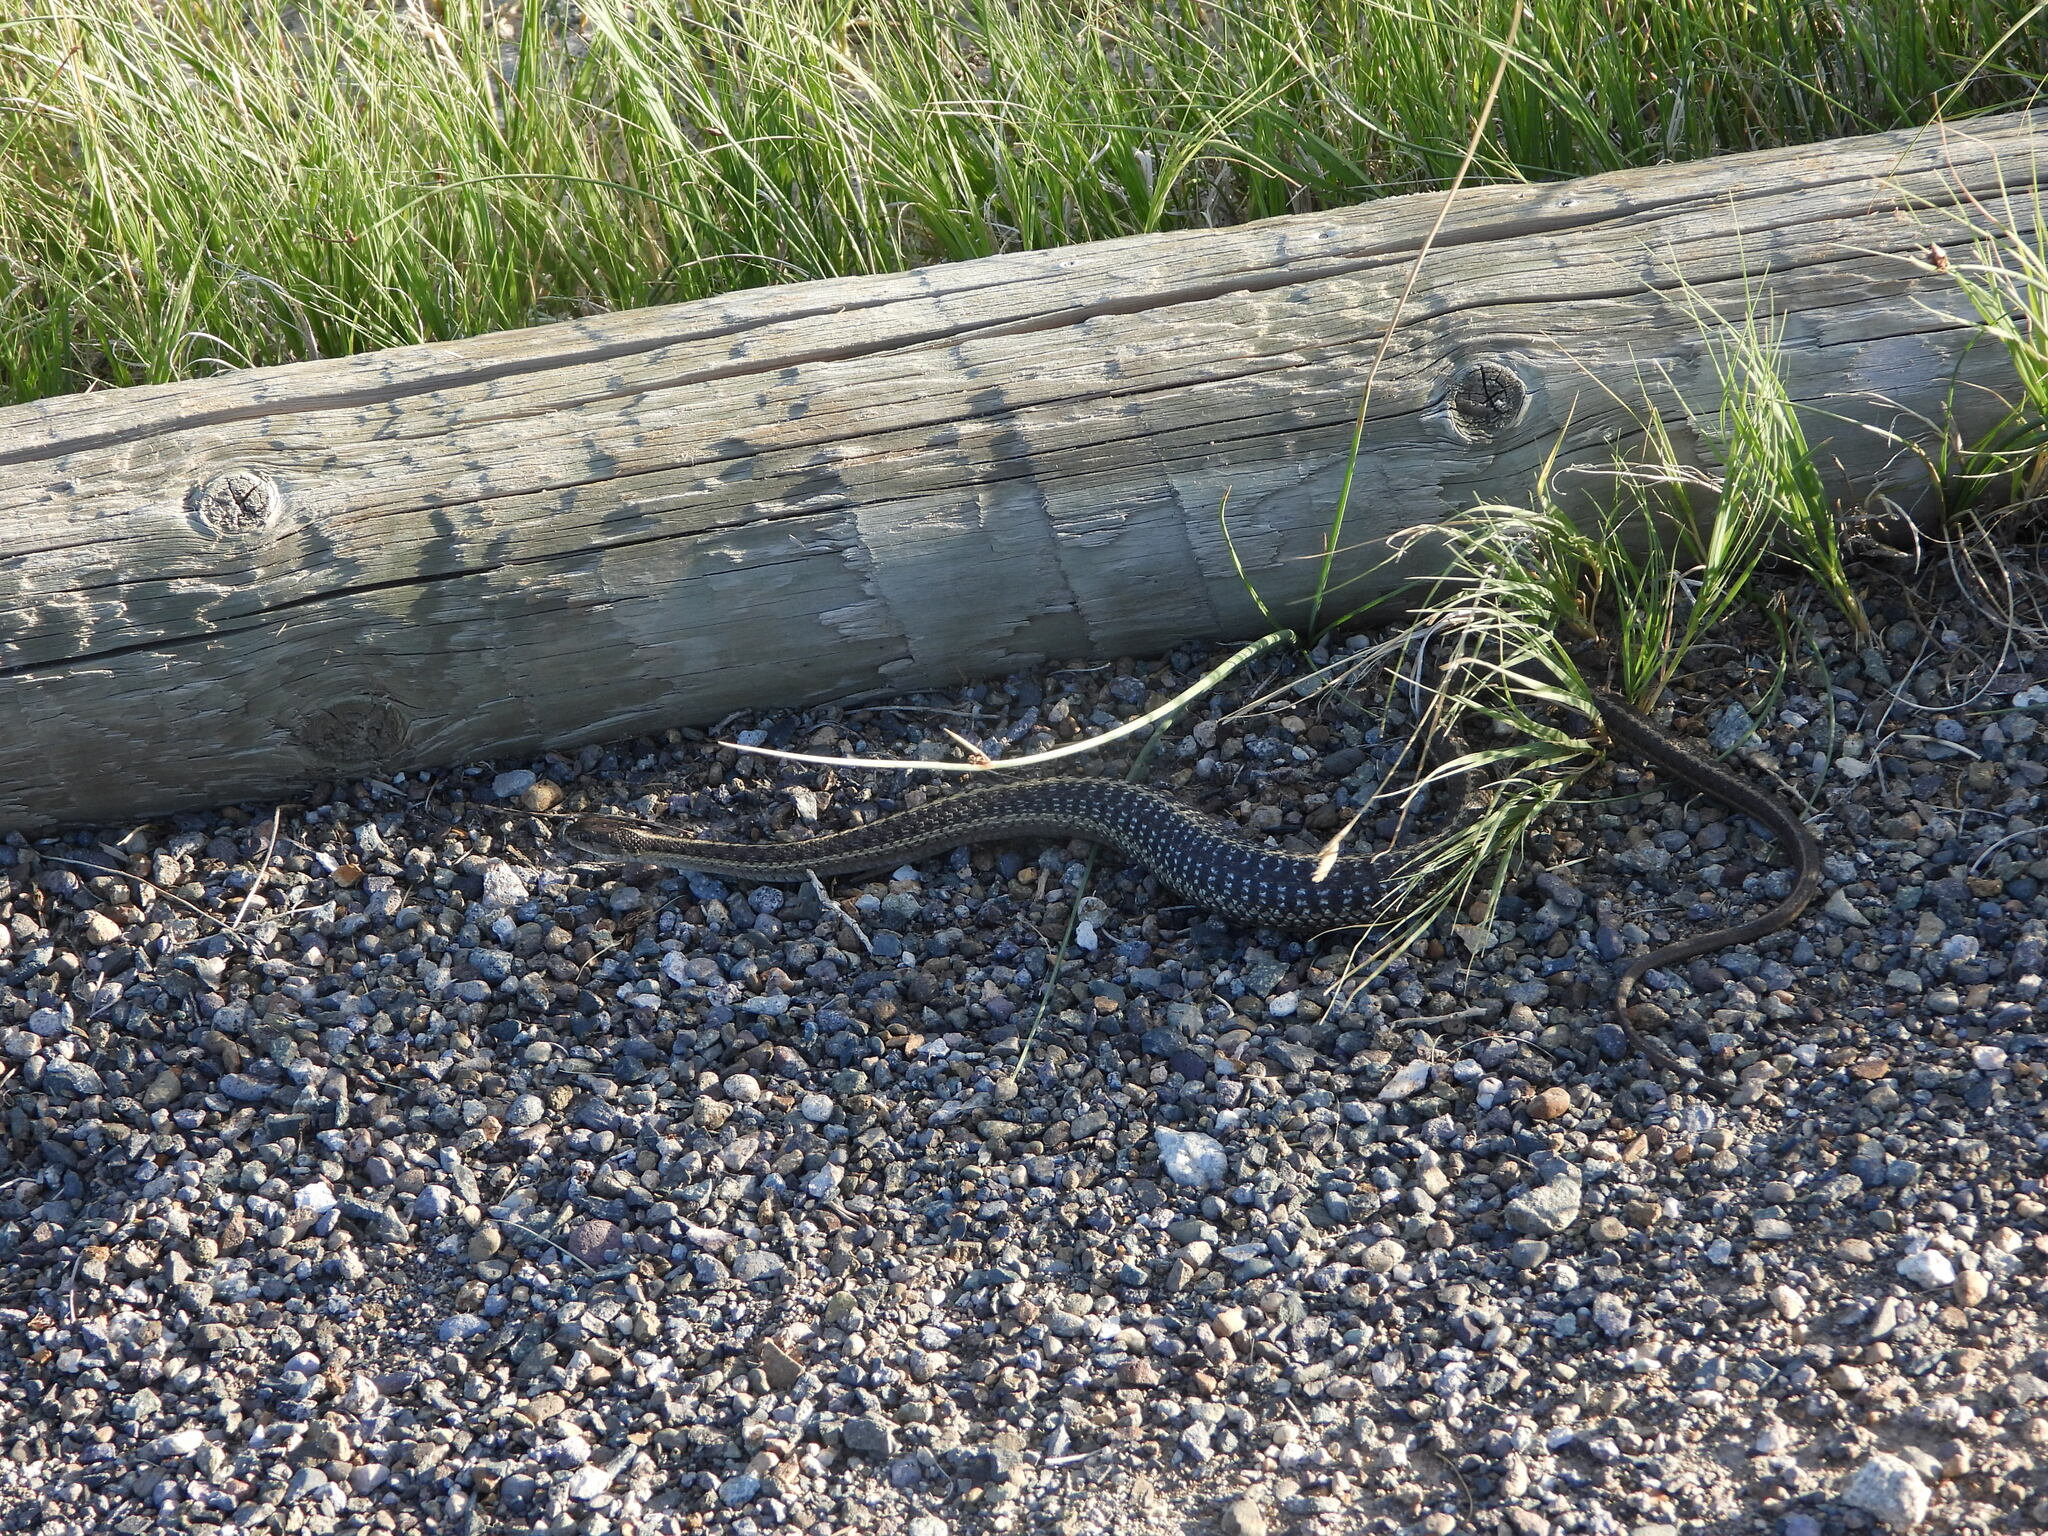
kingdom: Animalia
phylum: Chordata
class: Squamata
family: Colubridae
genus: Thamnophis
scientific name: Thamnophis elegans
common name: Western terrestrial garter snake
